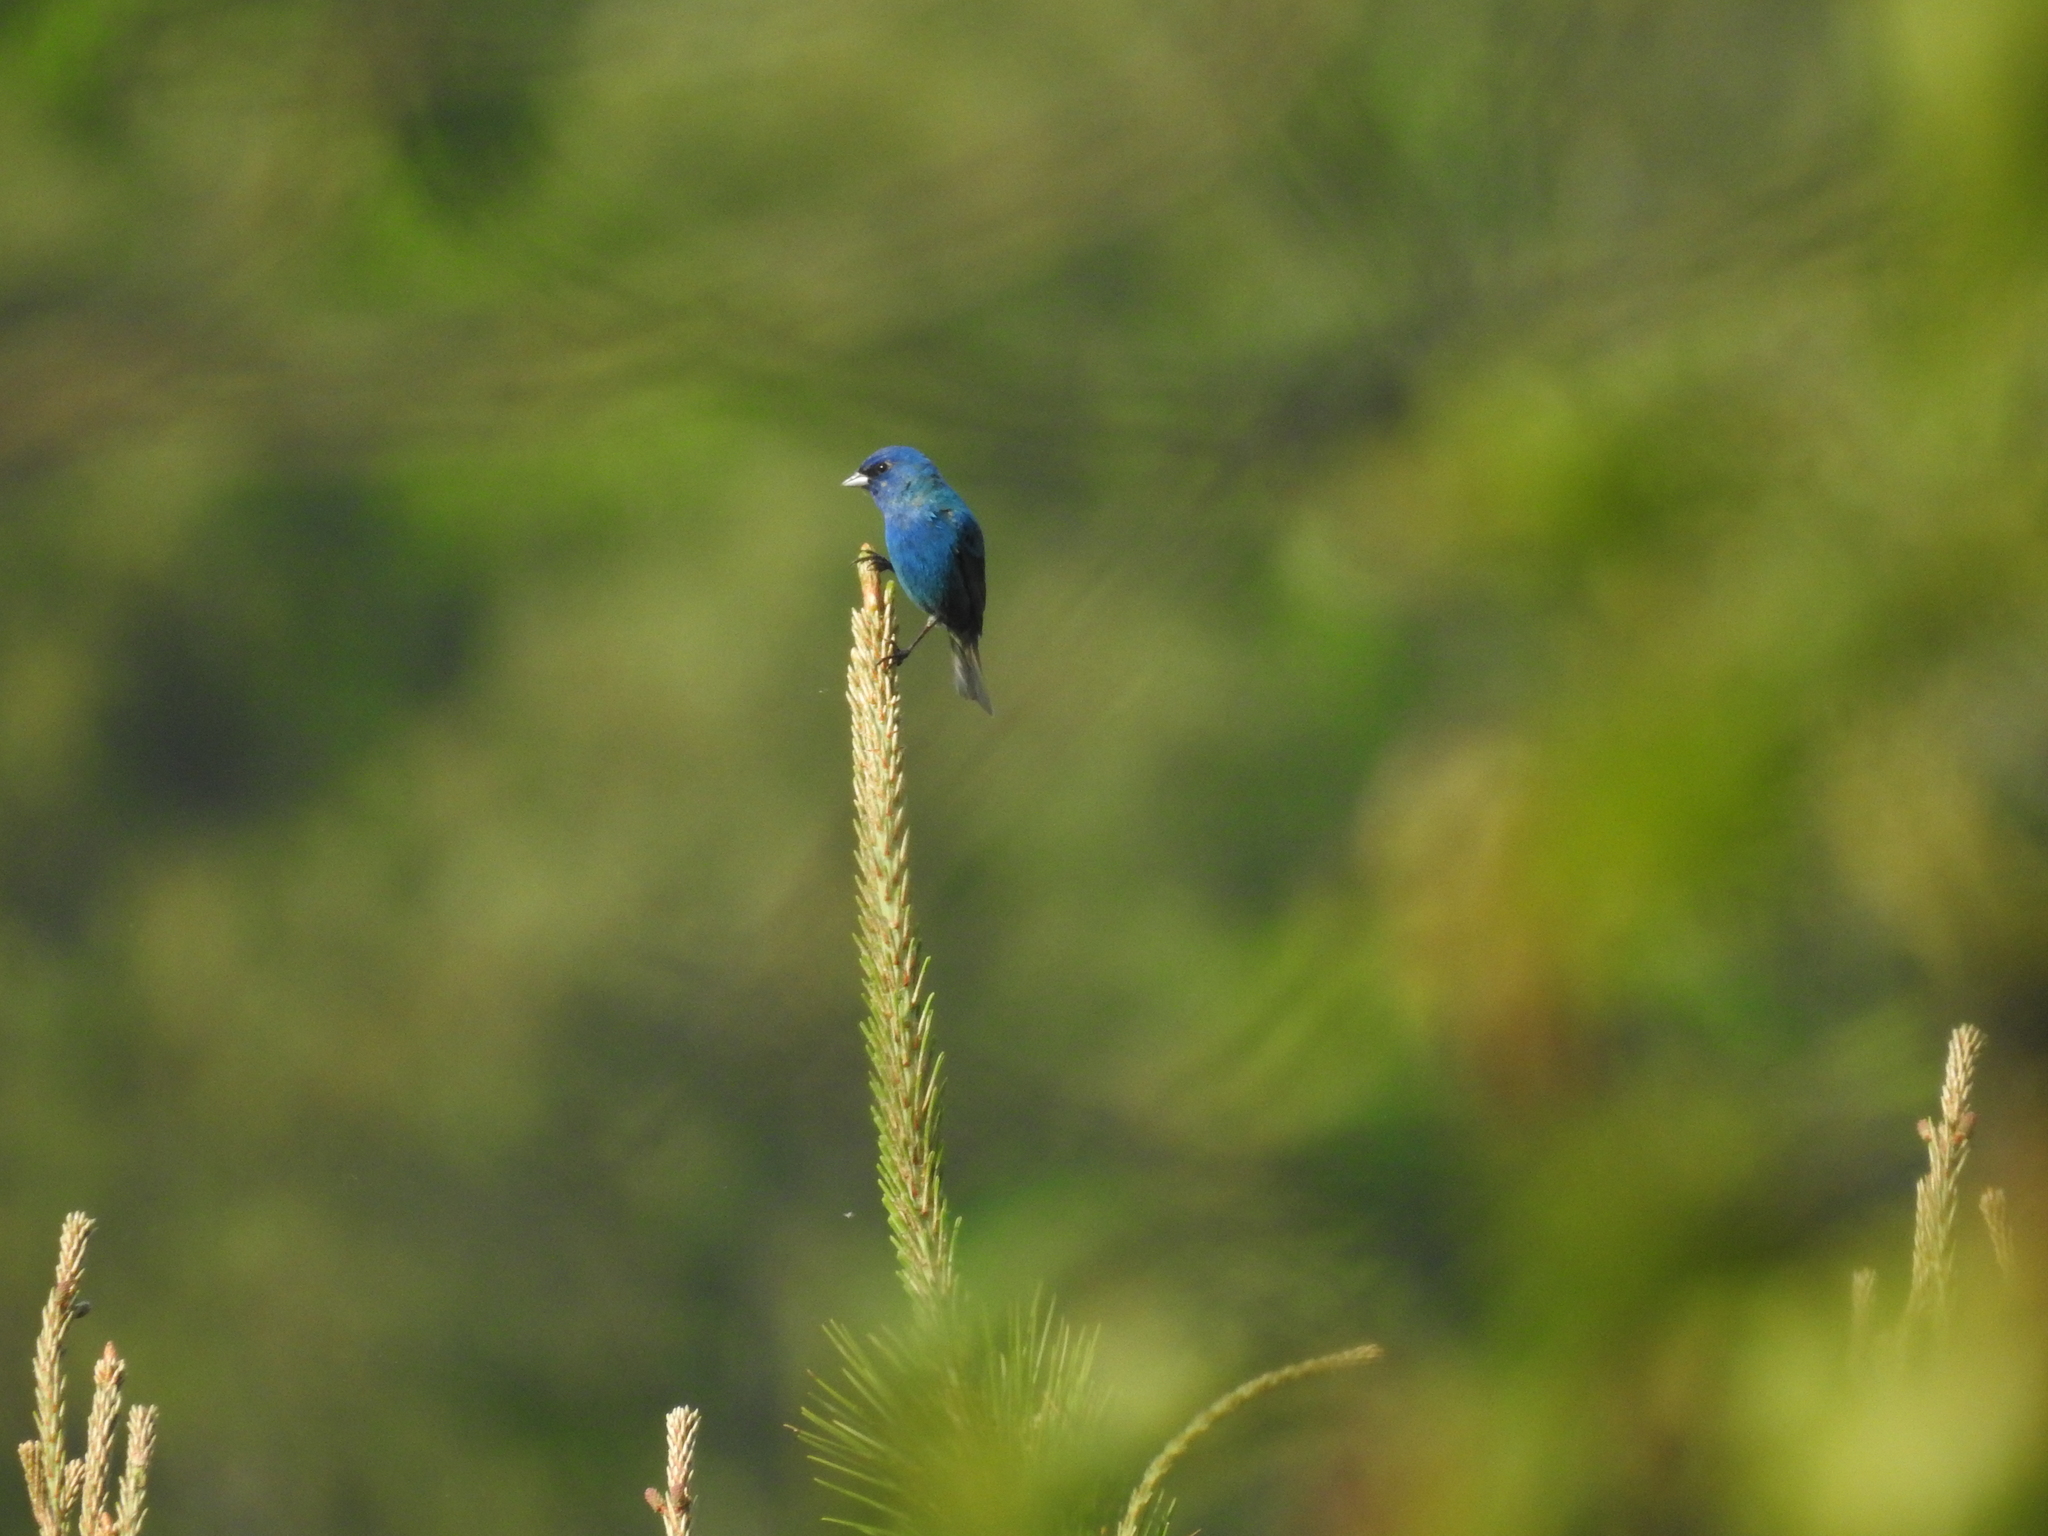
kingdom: Animalia
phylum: Chordata
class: Aves
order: Passeriformes
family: Cardinalidae
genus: Passerina
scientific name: Passerina cyanea
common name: Indigo bunting
